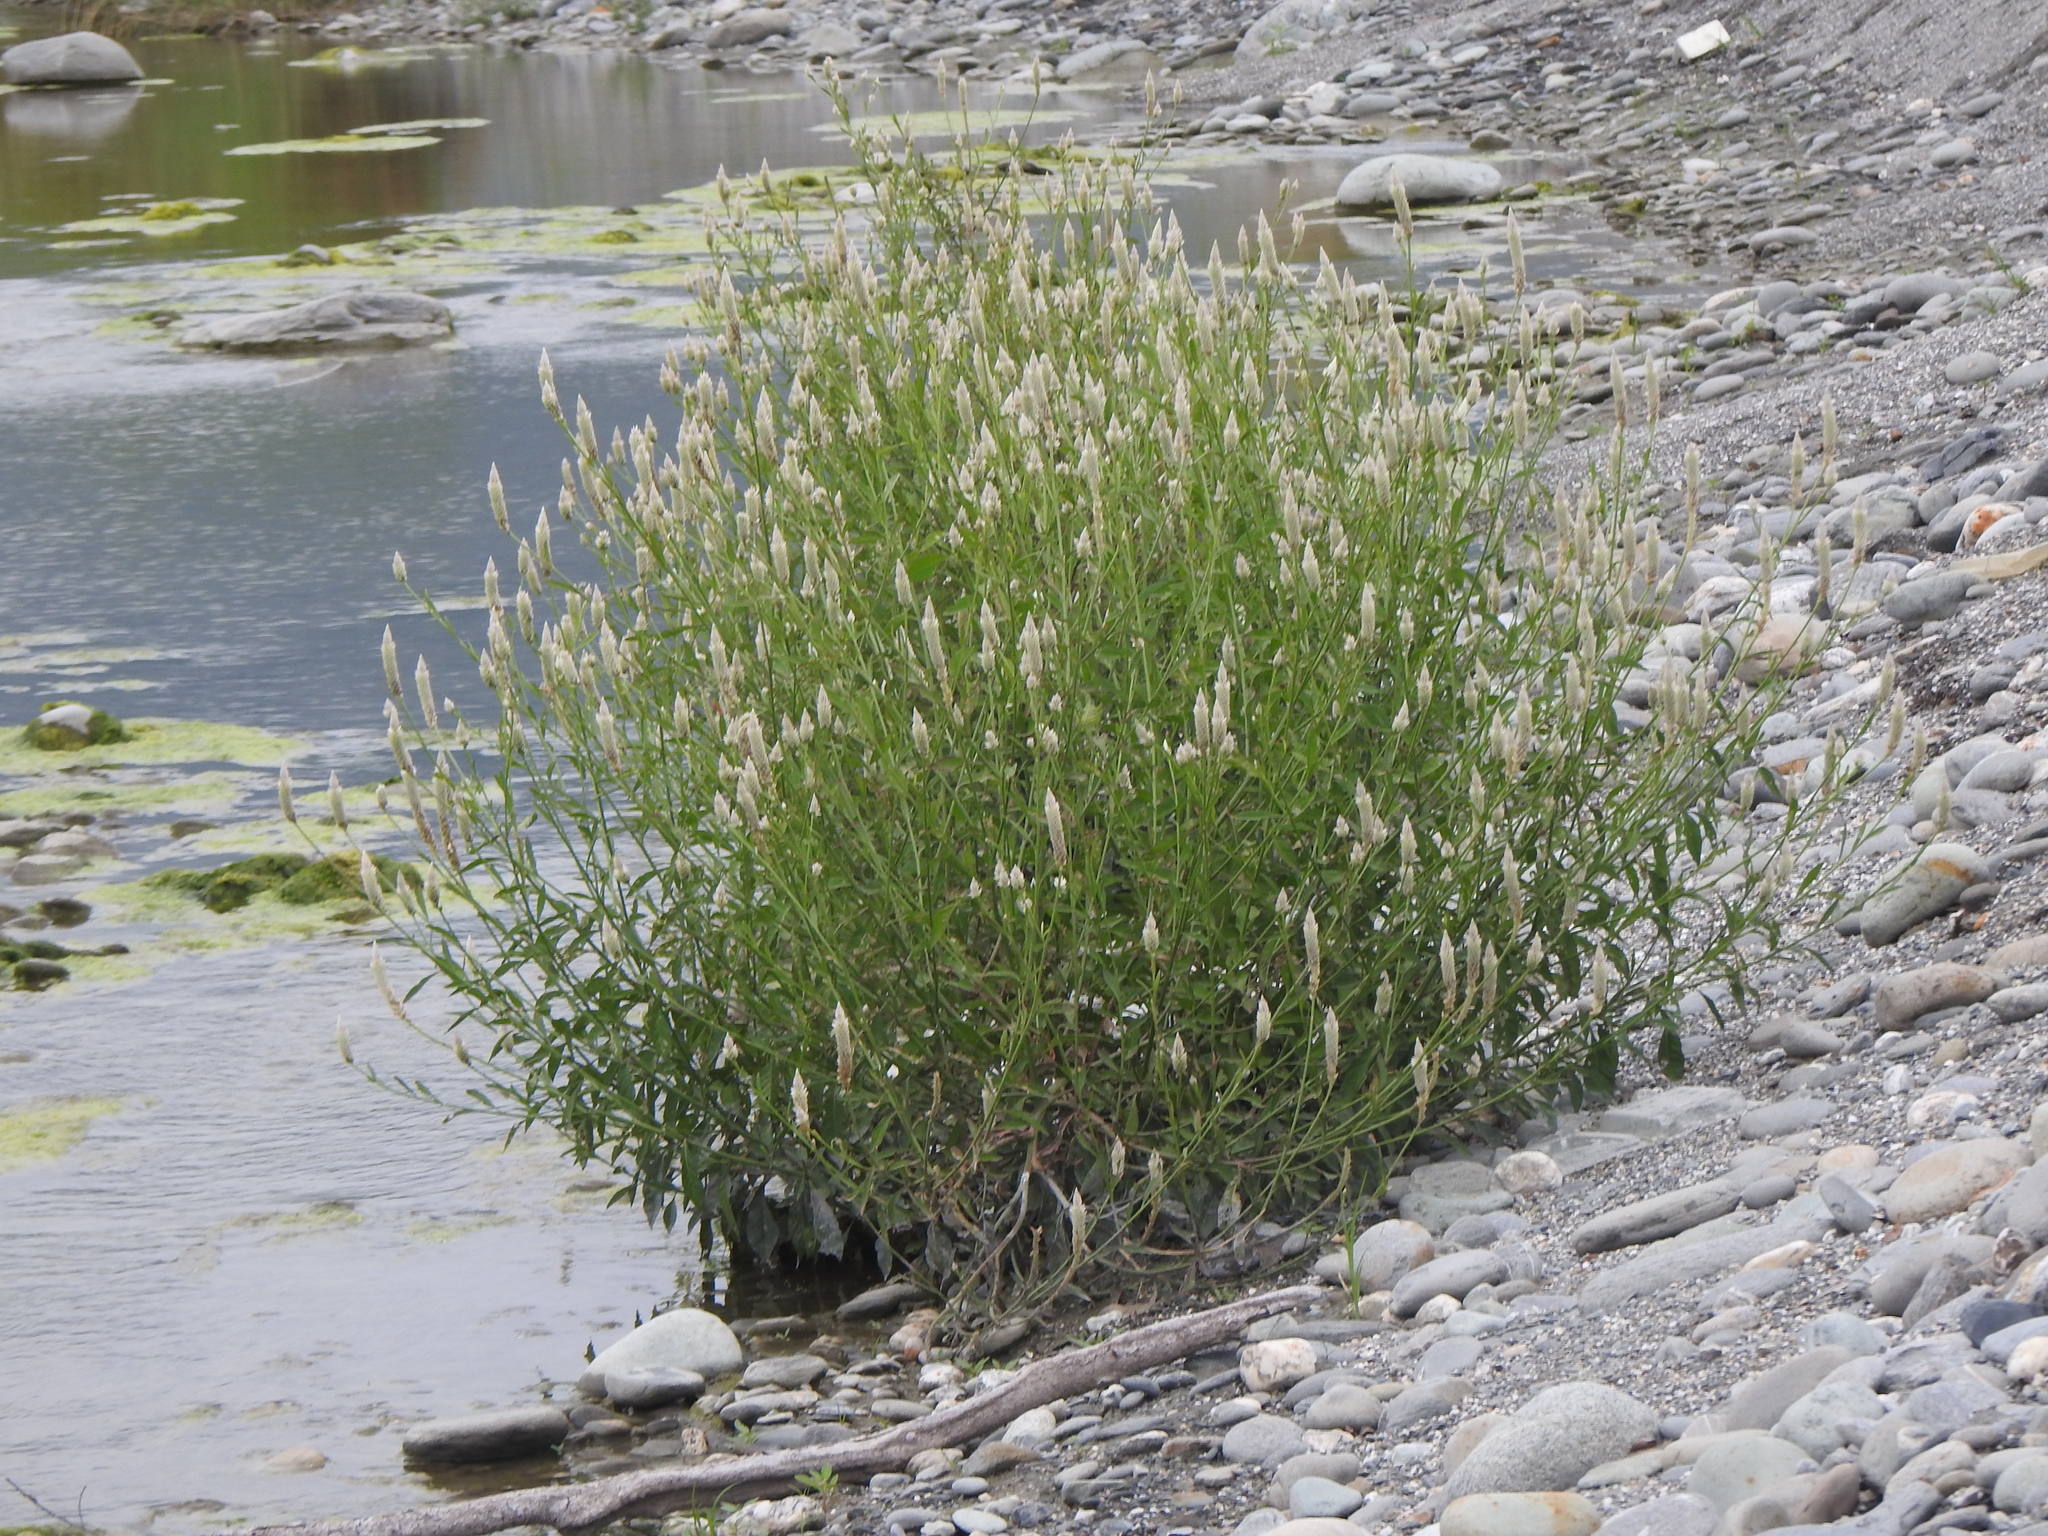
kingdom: Plantae
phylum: Tracheophyta
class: Magnoliopsida
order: Caryophyllales
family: Amaranthaceae
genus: Celosia
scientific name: Celosia argentea
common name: Feather cockscomb
